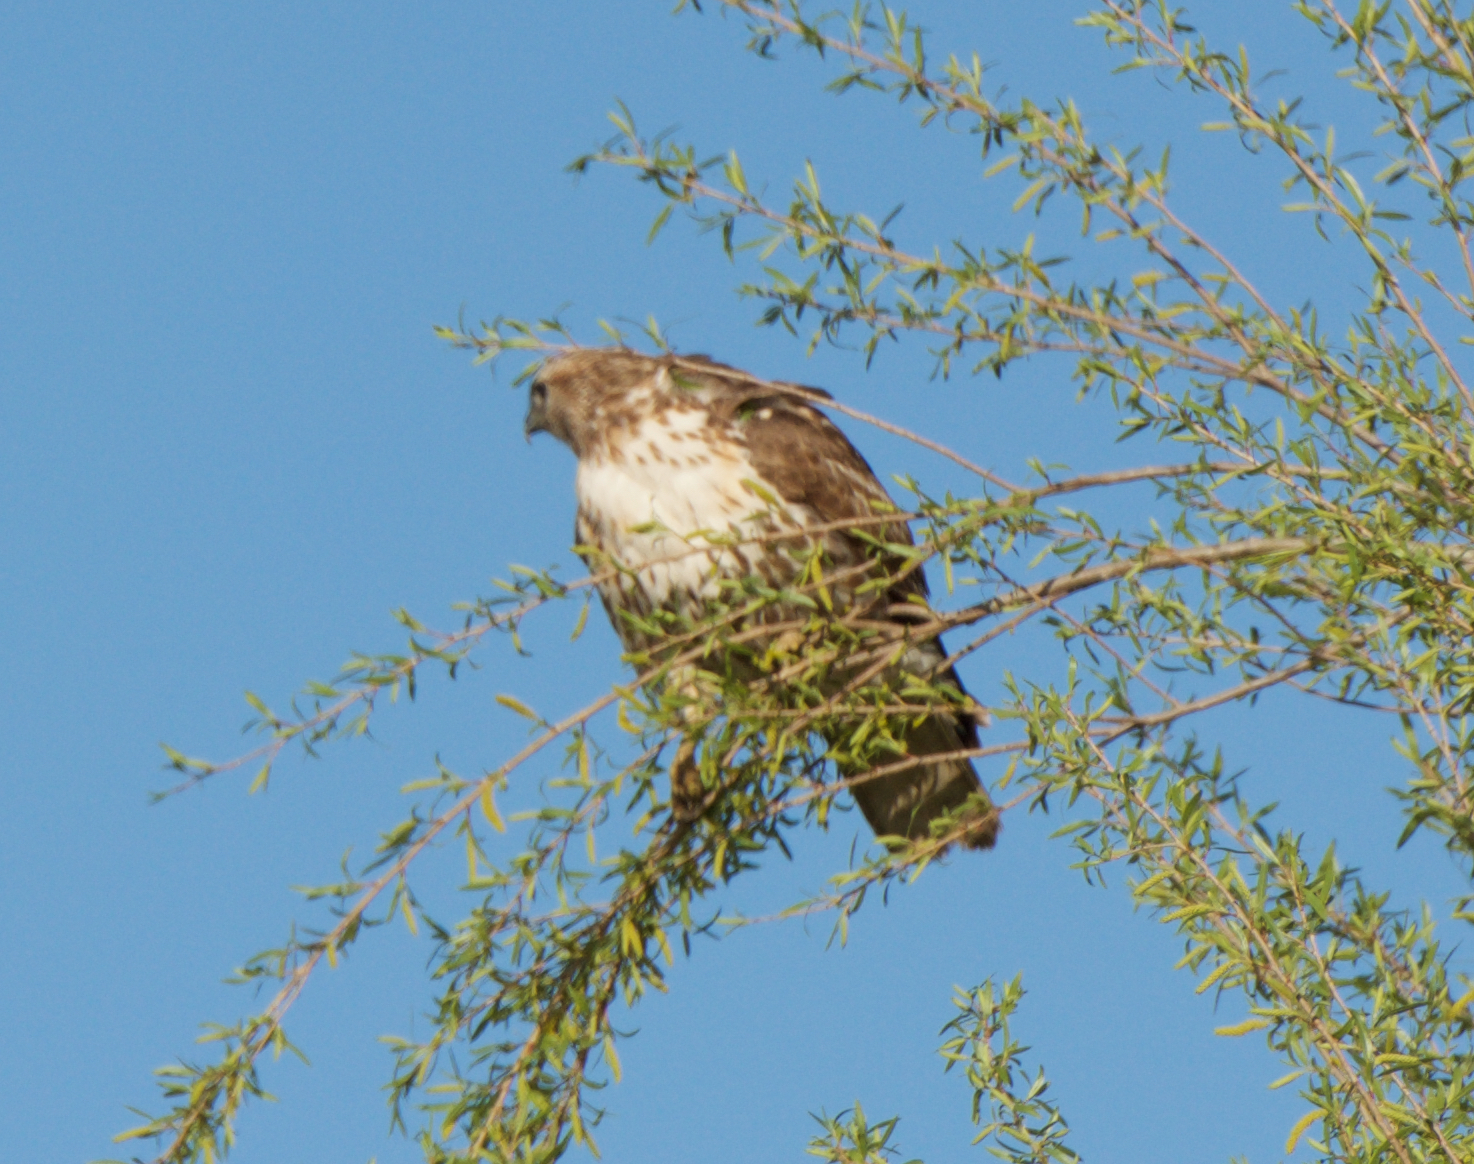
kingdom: Animalia
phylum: Chordata
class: Aves
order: Accipitriformes
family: Accipitridae
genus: Buteo
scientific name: Buteo jamaicensis
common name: Red-tailed hawk
